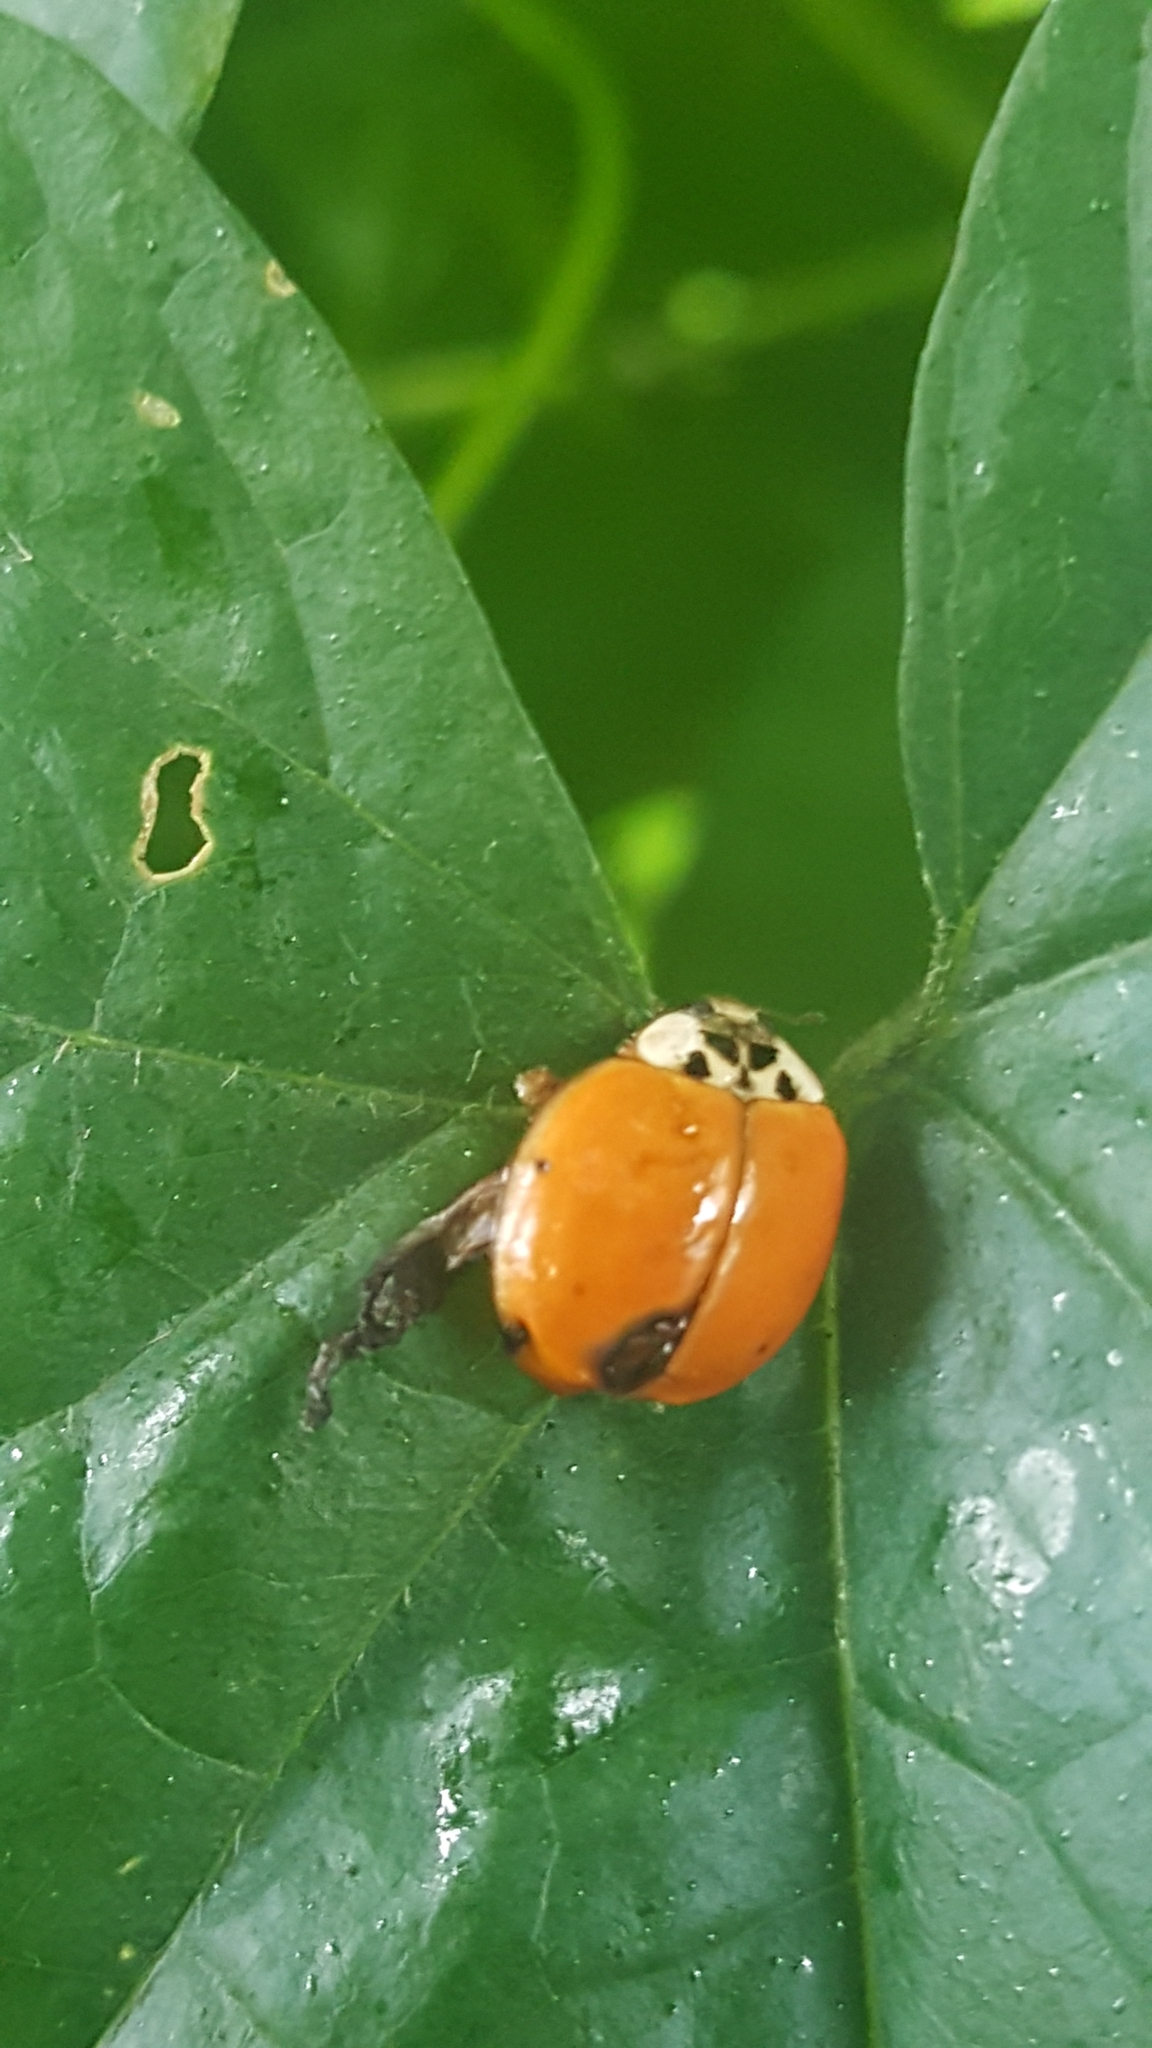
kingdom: Animalia
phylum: Arthropoda
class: Insecta
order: Coleoptera
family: Coccinellidae
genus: Harmonia
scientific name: Harmonia axyridis
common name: Harlequin ladybird
